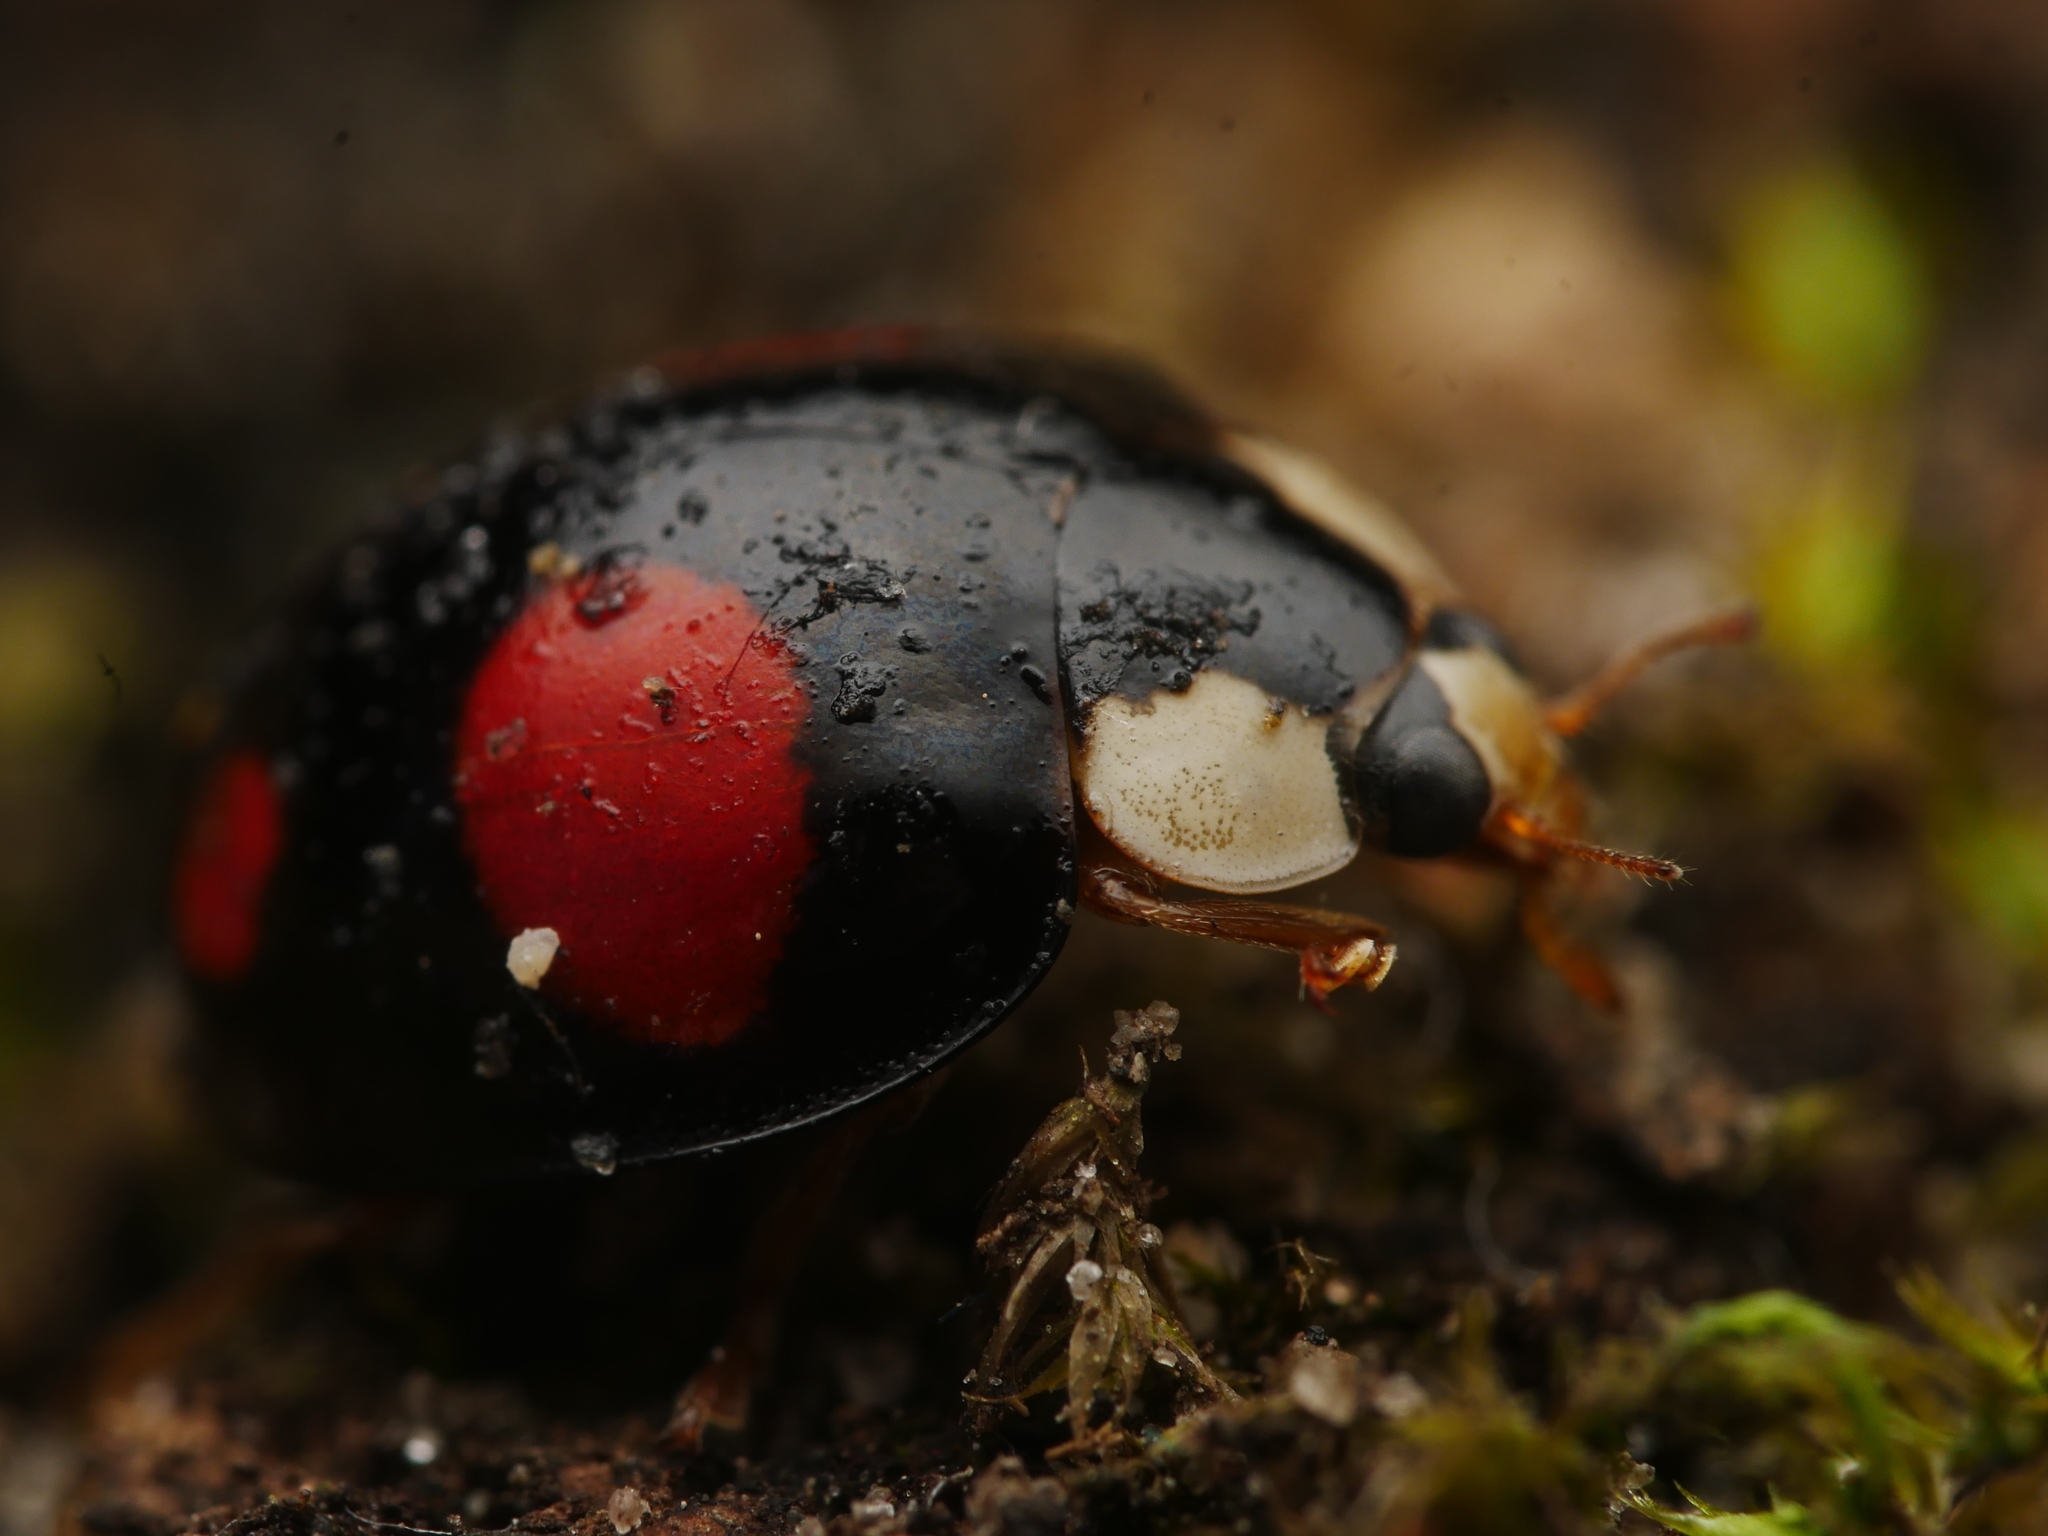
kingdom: Animalia
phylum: Arthropoda
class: Insecta
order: Coleoptera
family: Coccinellidae
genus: Harmonia
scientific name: Harmonia axyridis
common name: Harlequin ladybird
